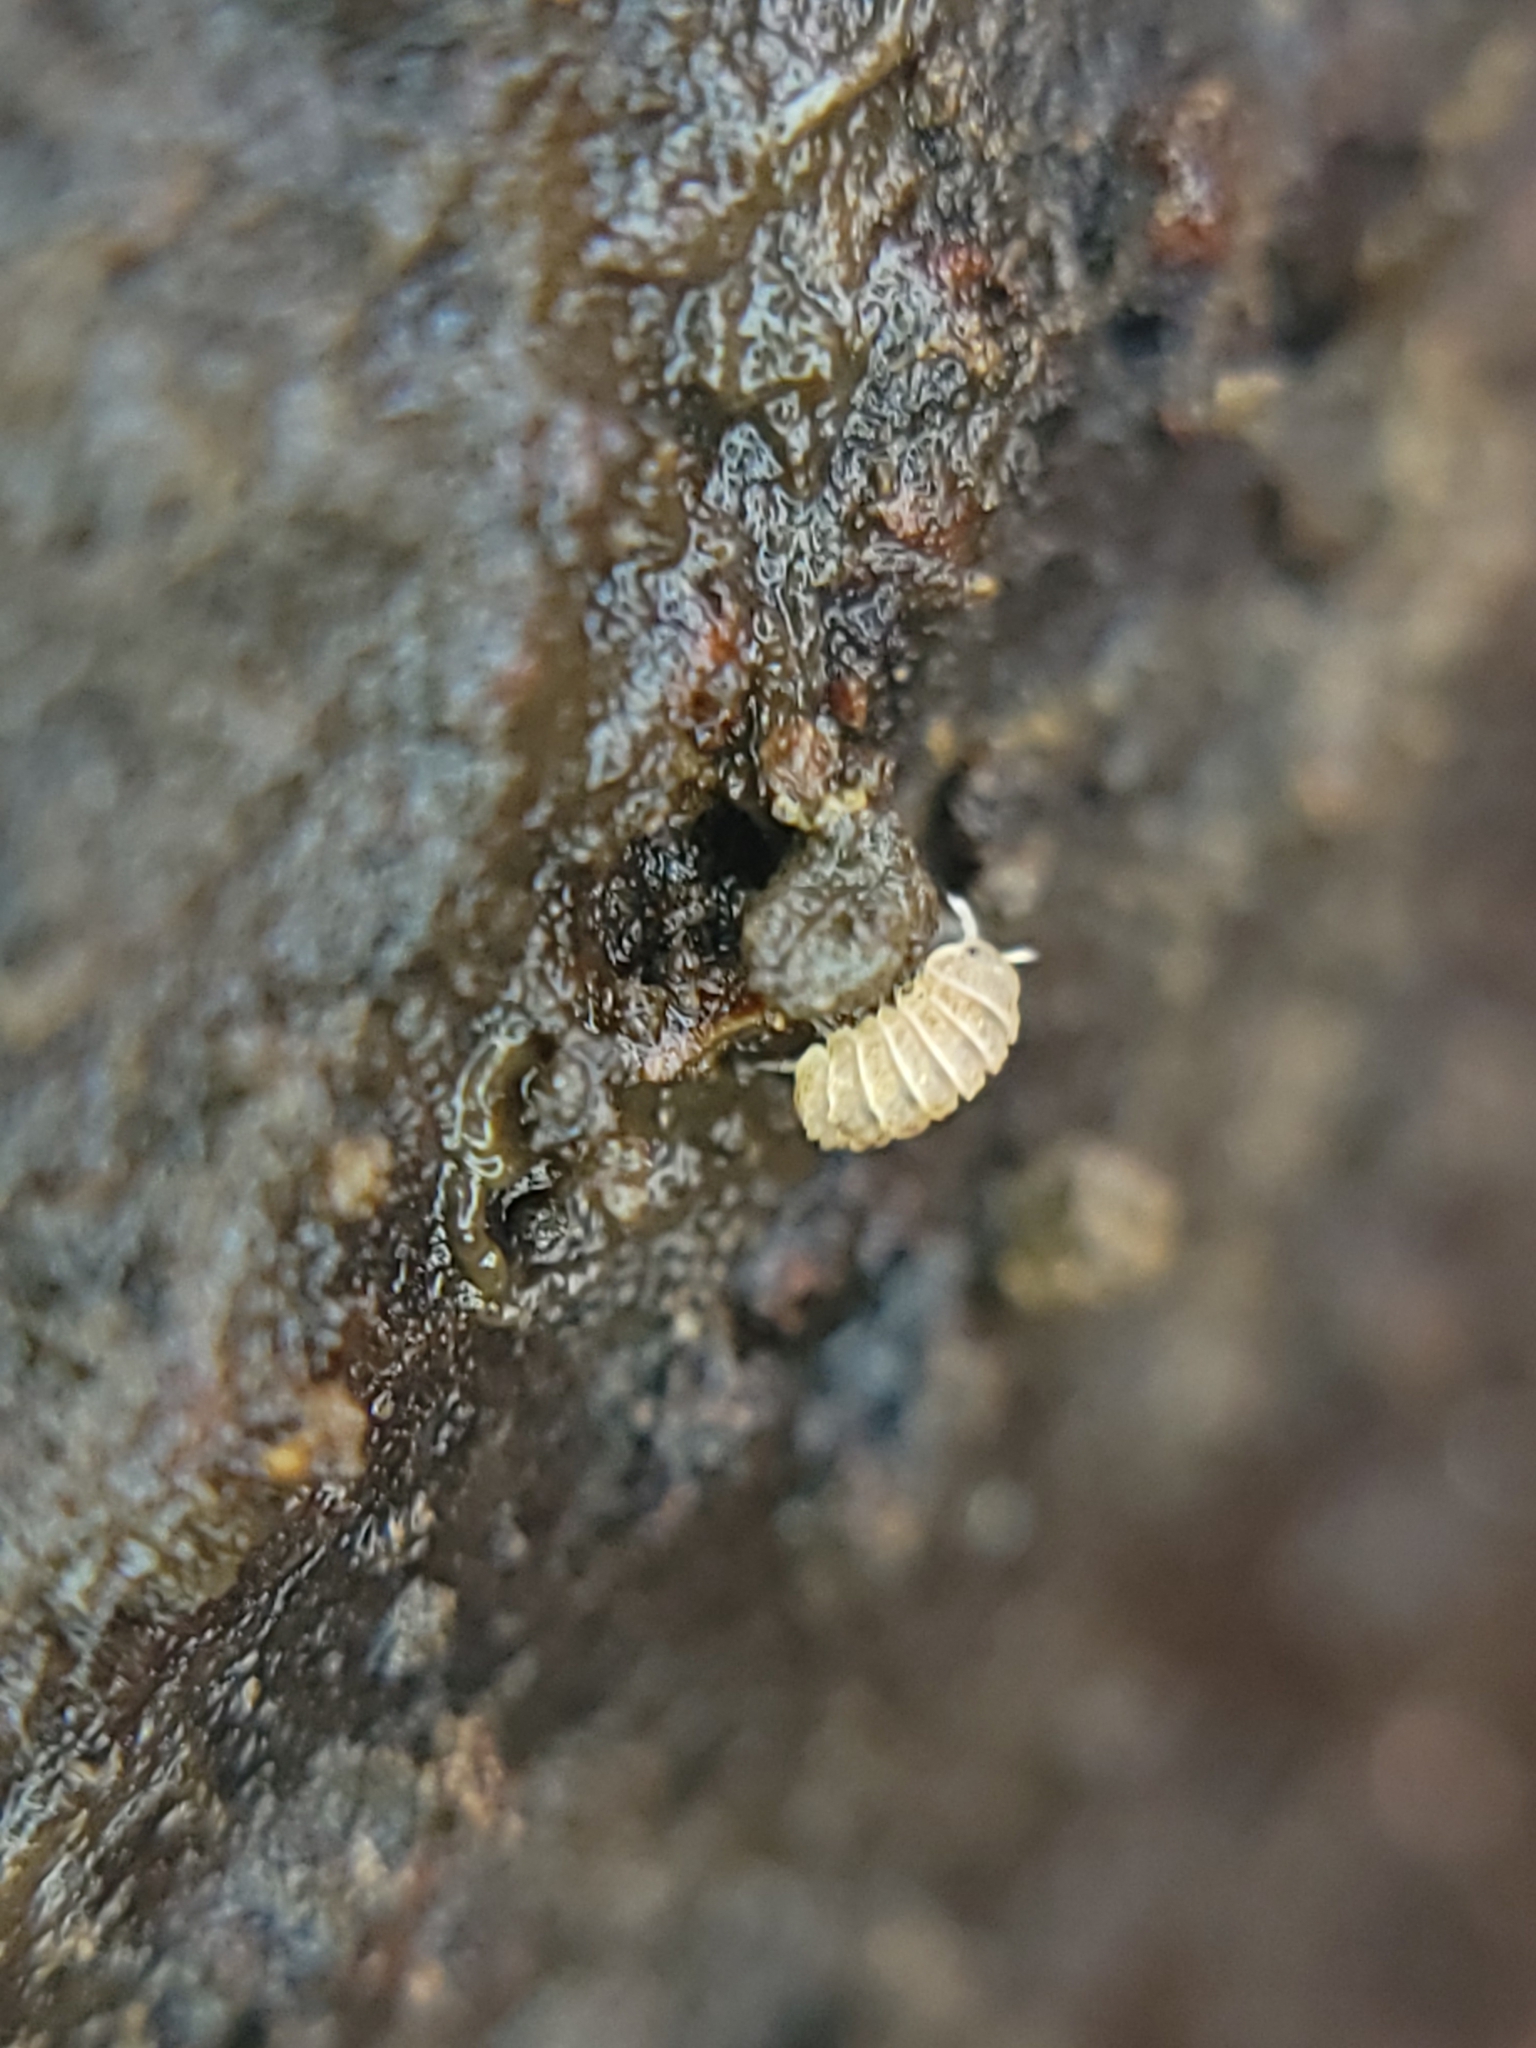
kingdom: Animalia
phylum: Arthropoda
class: Malacostraca
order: Isopoda
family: Armadillidae
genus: Reductoniscus
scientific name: Reductoniscus costulatus
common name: Pillbug
